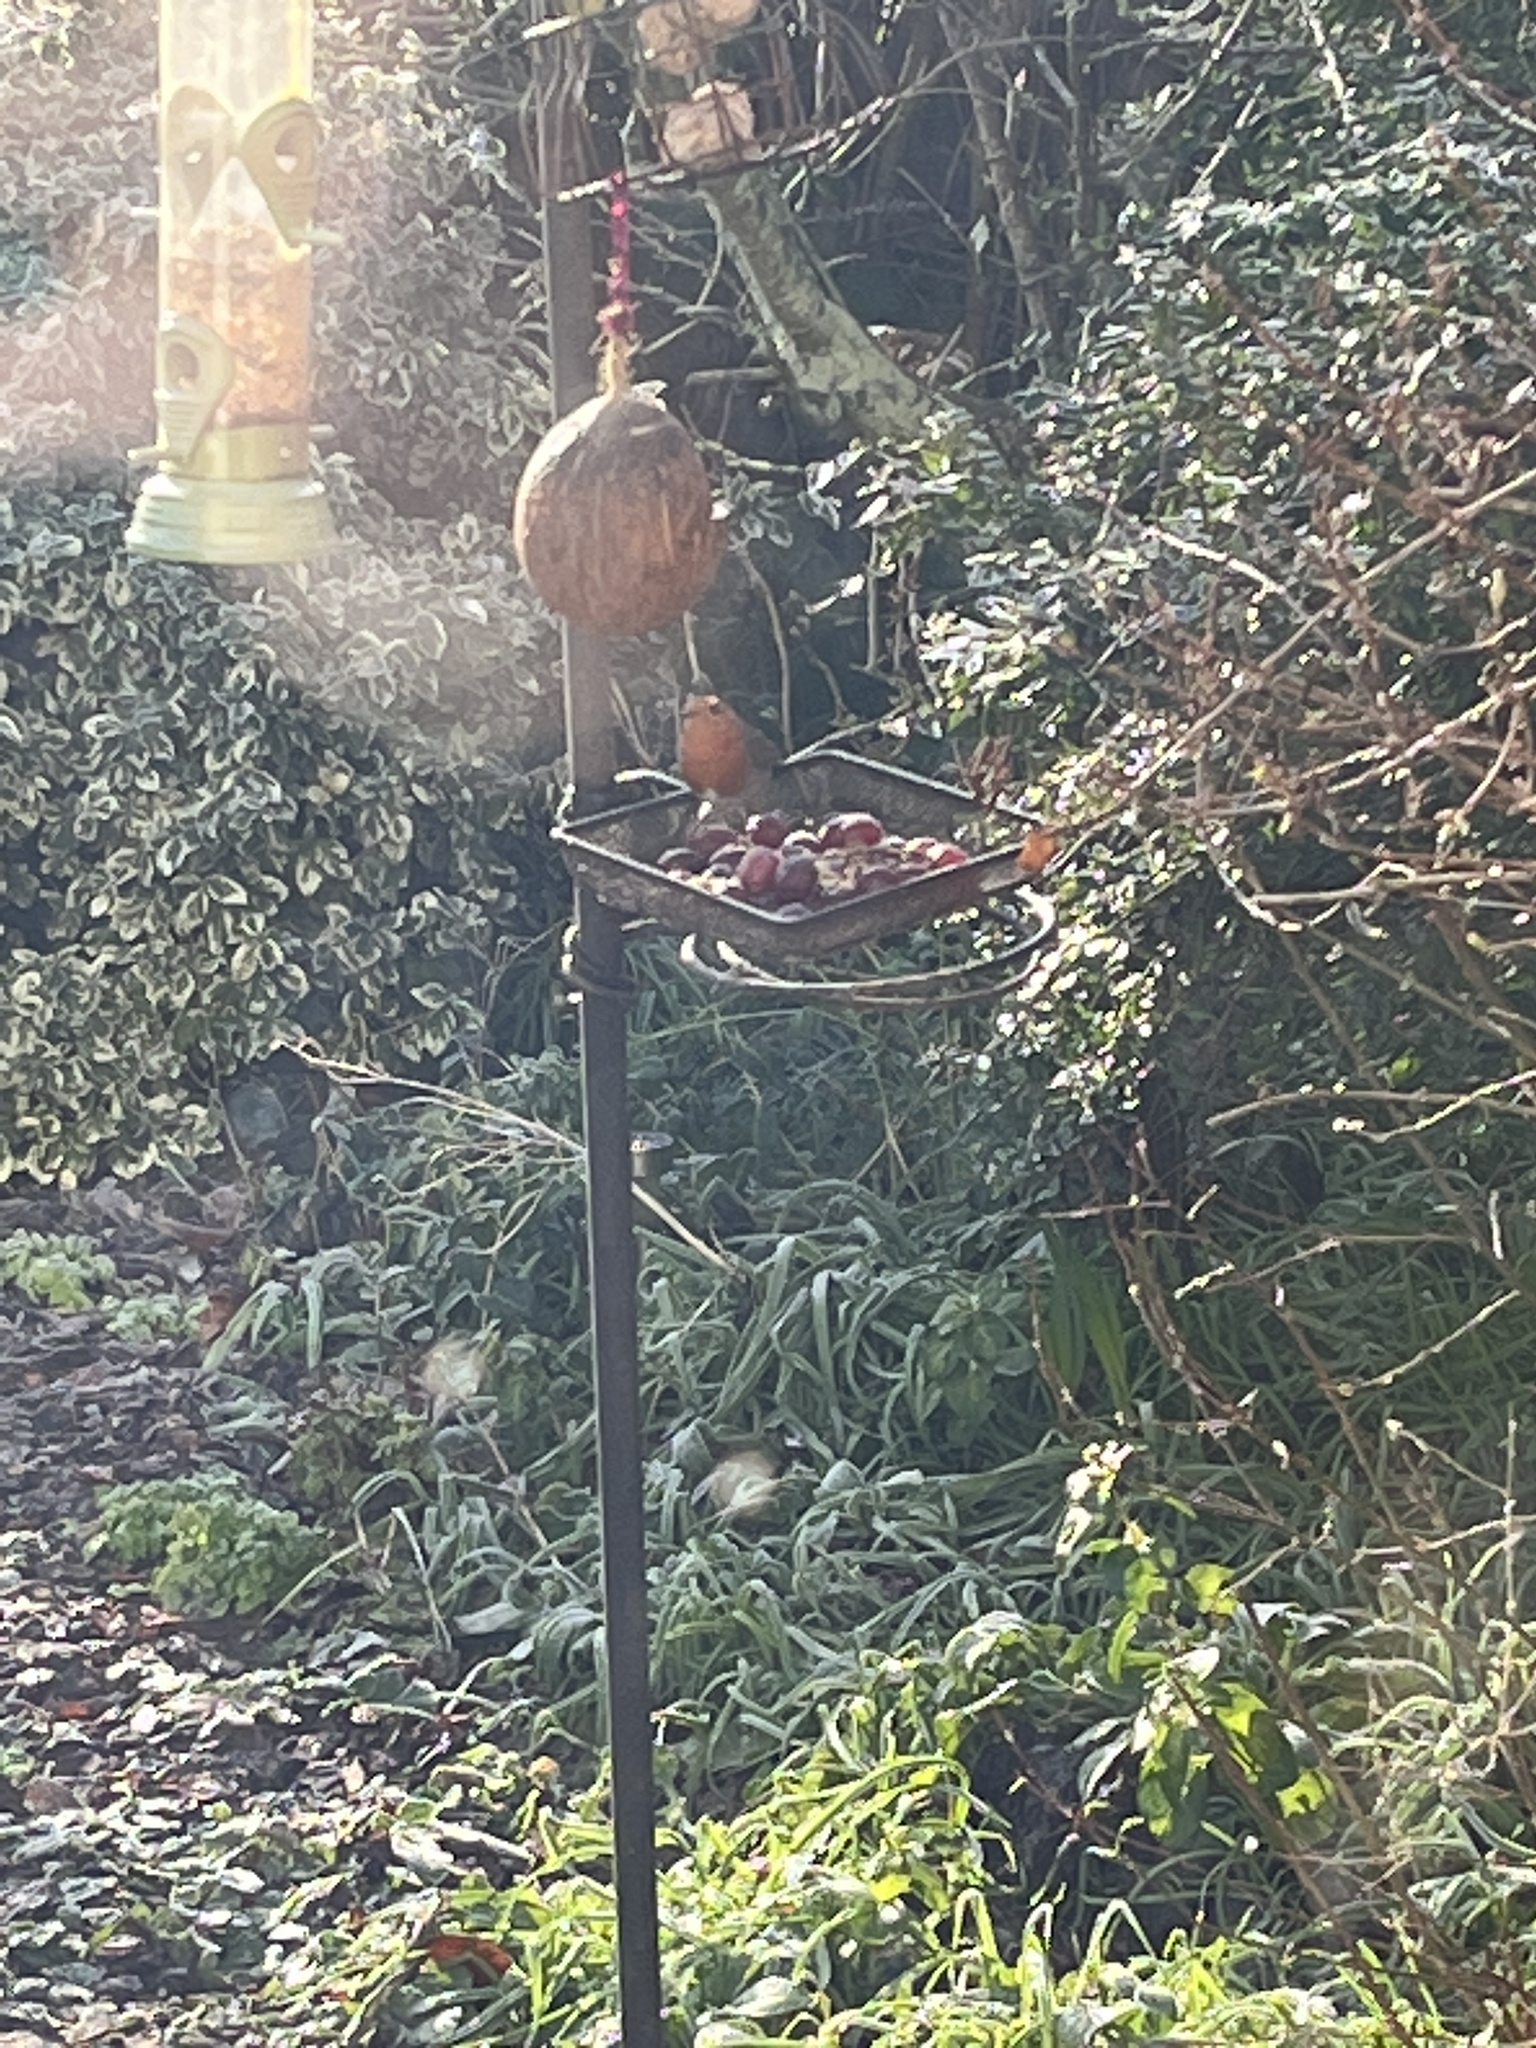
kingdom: Animalia
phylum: Chordata
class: Aves
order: Passeriformes
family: Muscicapidae
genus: Erithacus
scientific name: Erithacus rubecula
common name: European robin
